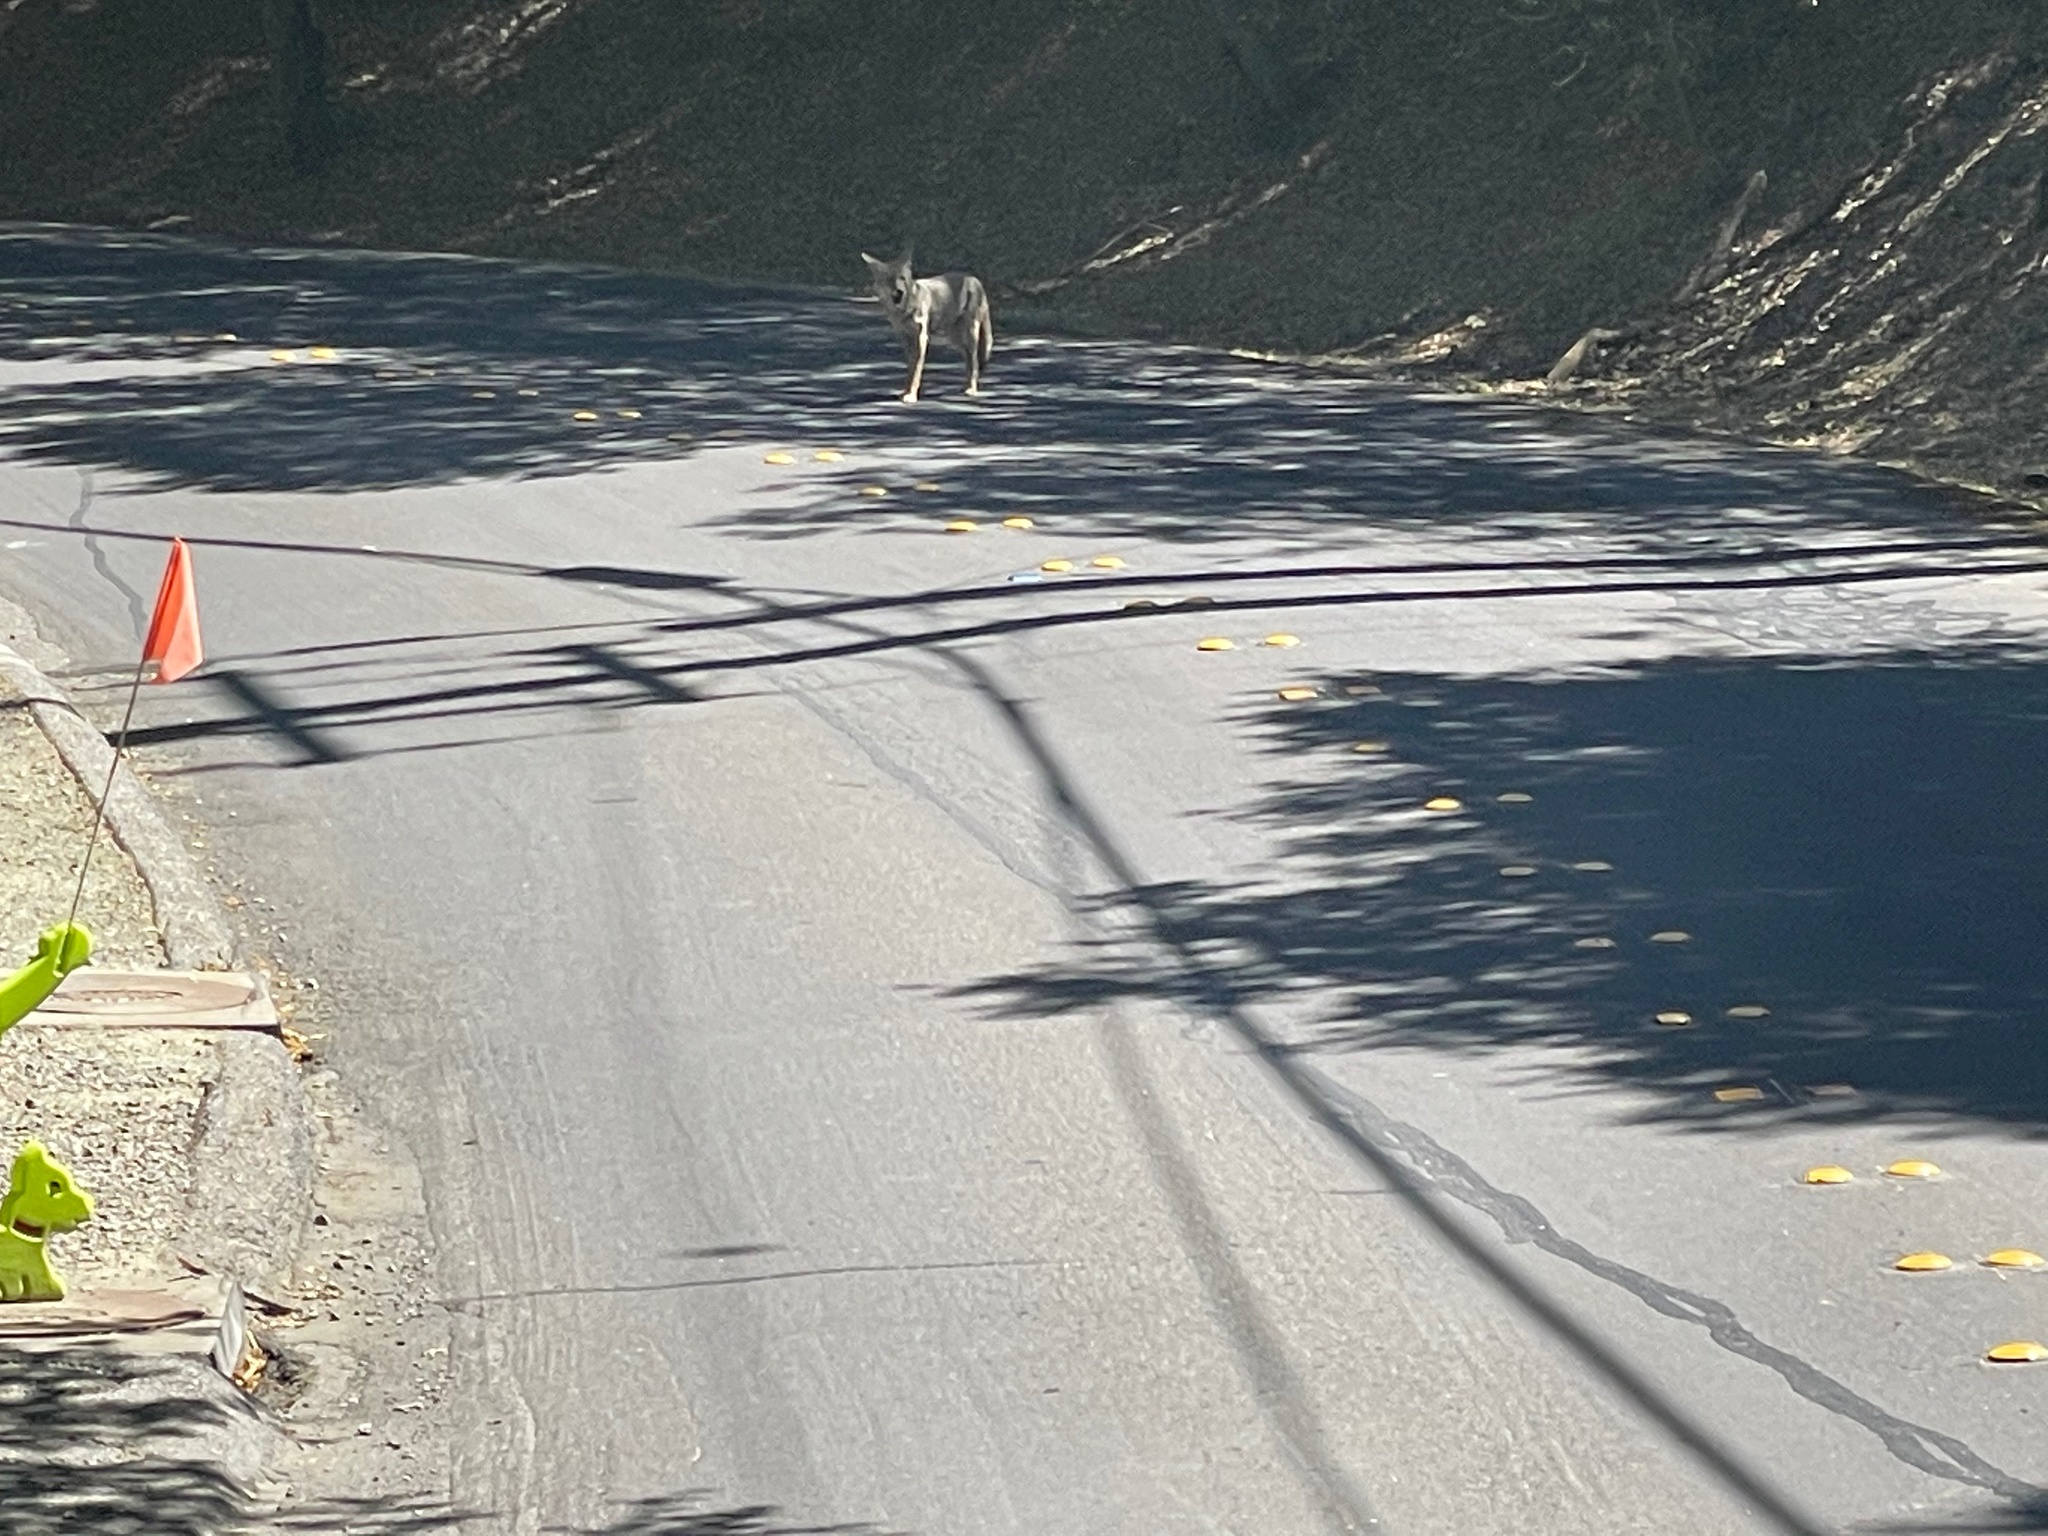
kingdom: Animalia
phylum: Chordata
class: Mammalia
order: Carnivora
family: Canidae
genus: Canis
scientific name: Canis latrans
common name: Coyote
